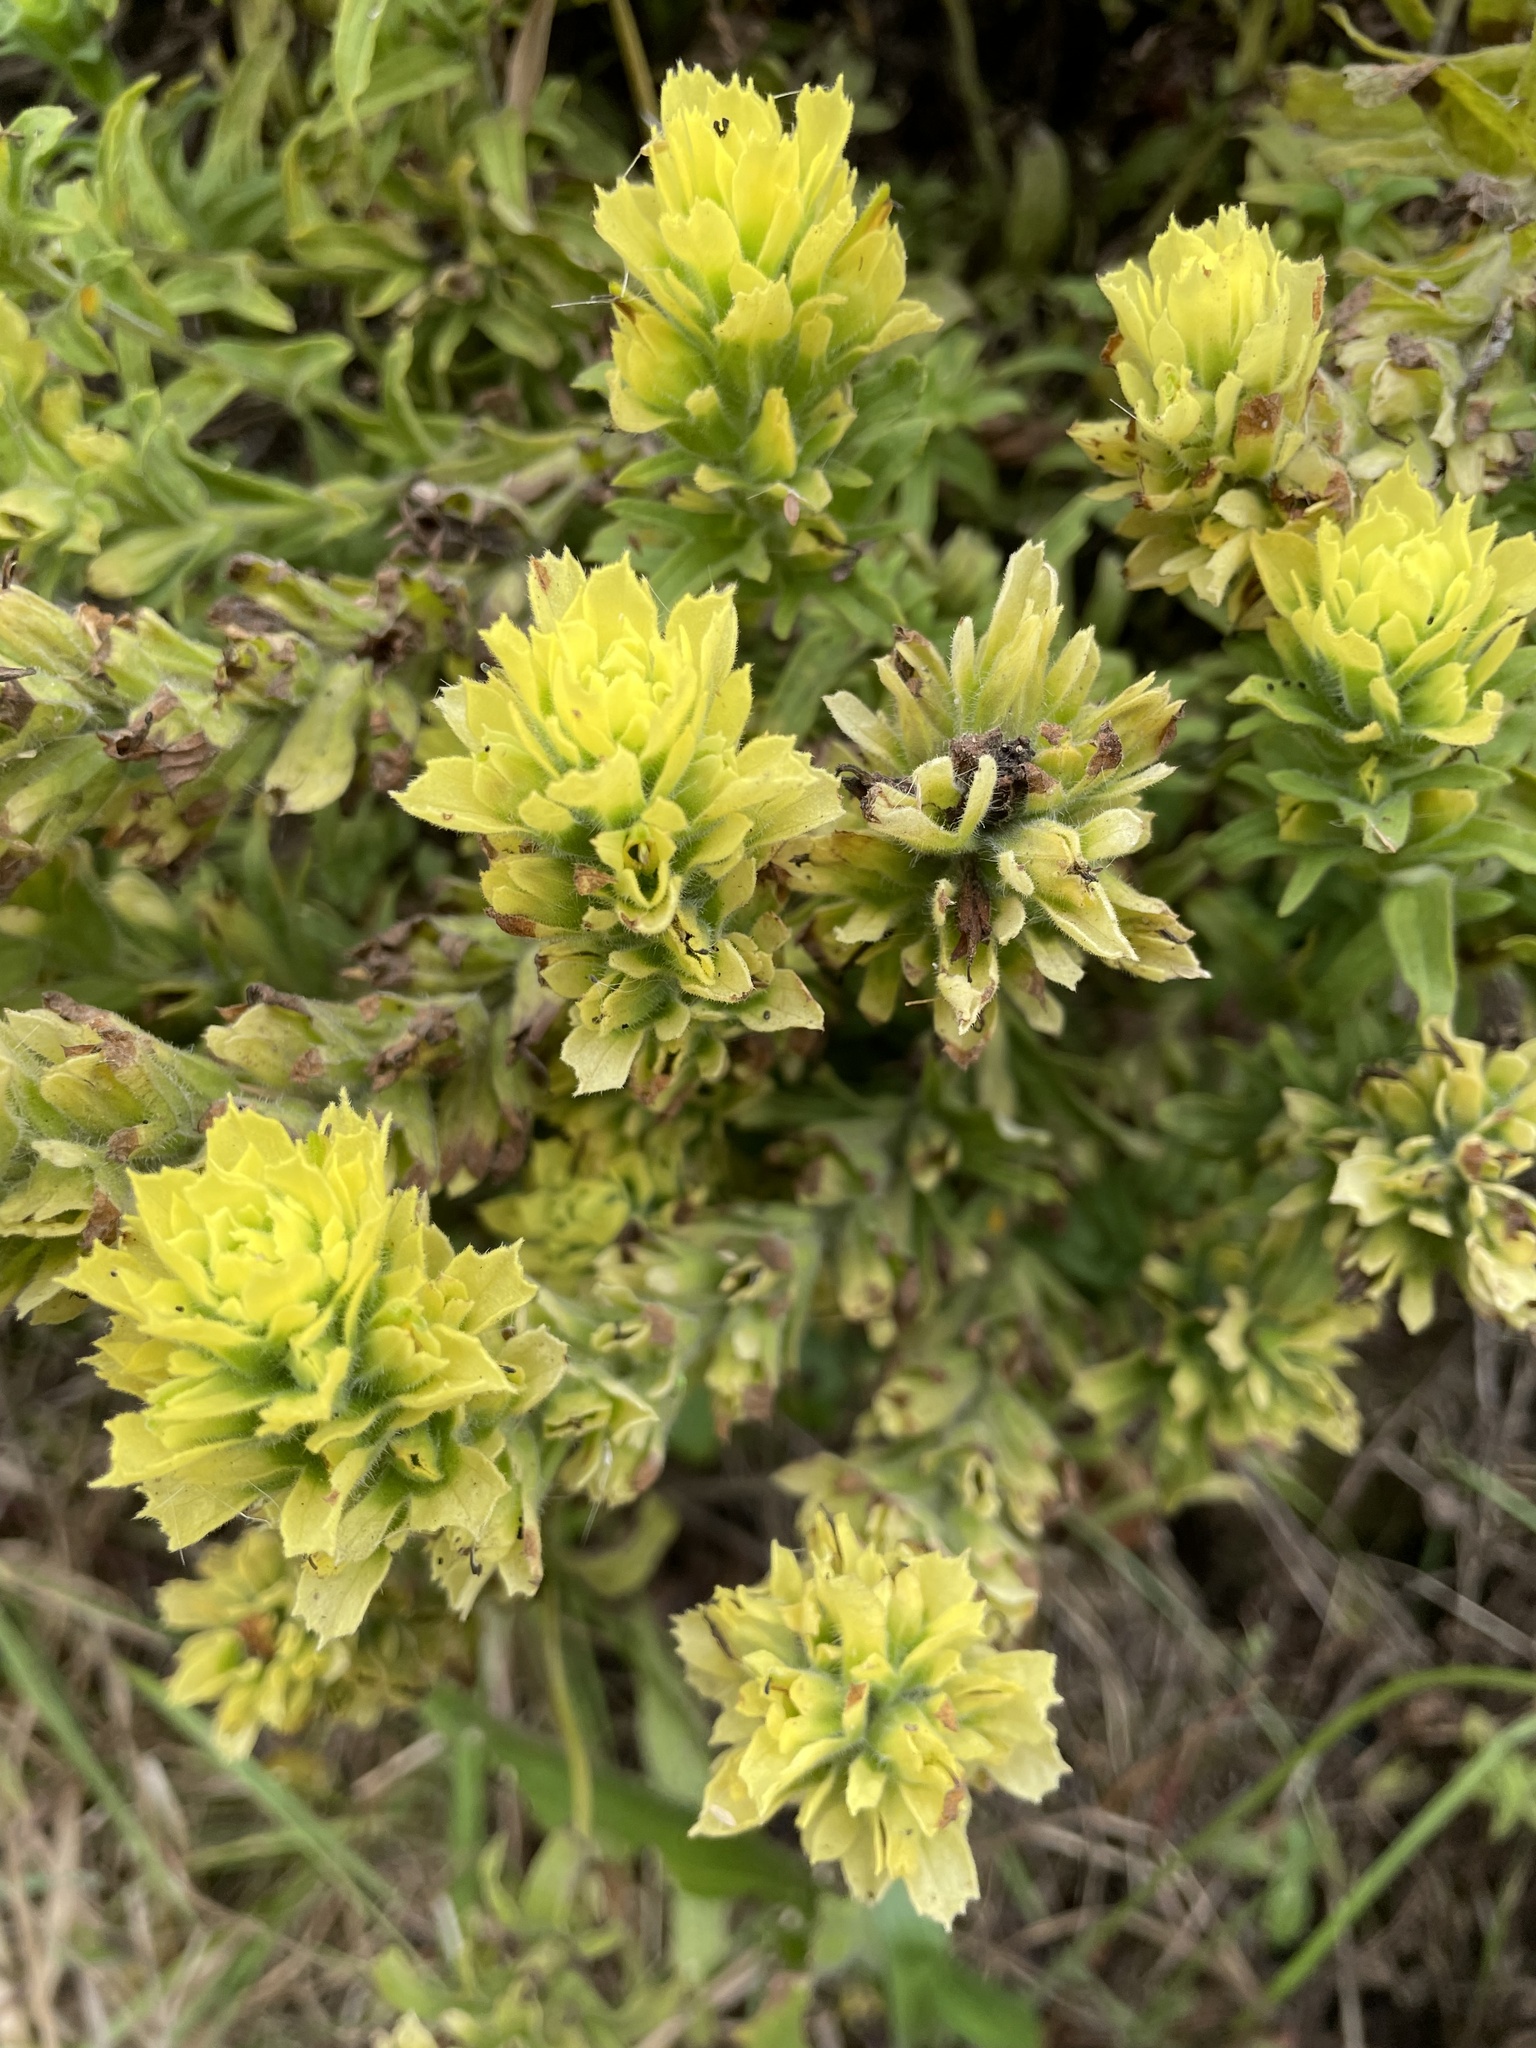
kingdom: Plantae
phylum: Tracheophyta
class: Magnoliopsida
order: Lamiales
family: Orobanchaceae
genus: Castilleja
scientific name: Castilleja wightii
